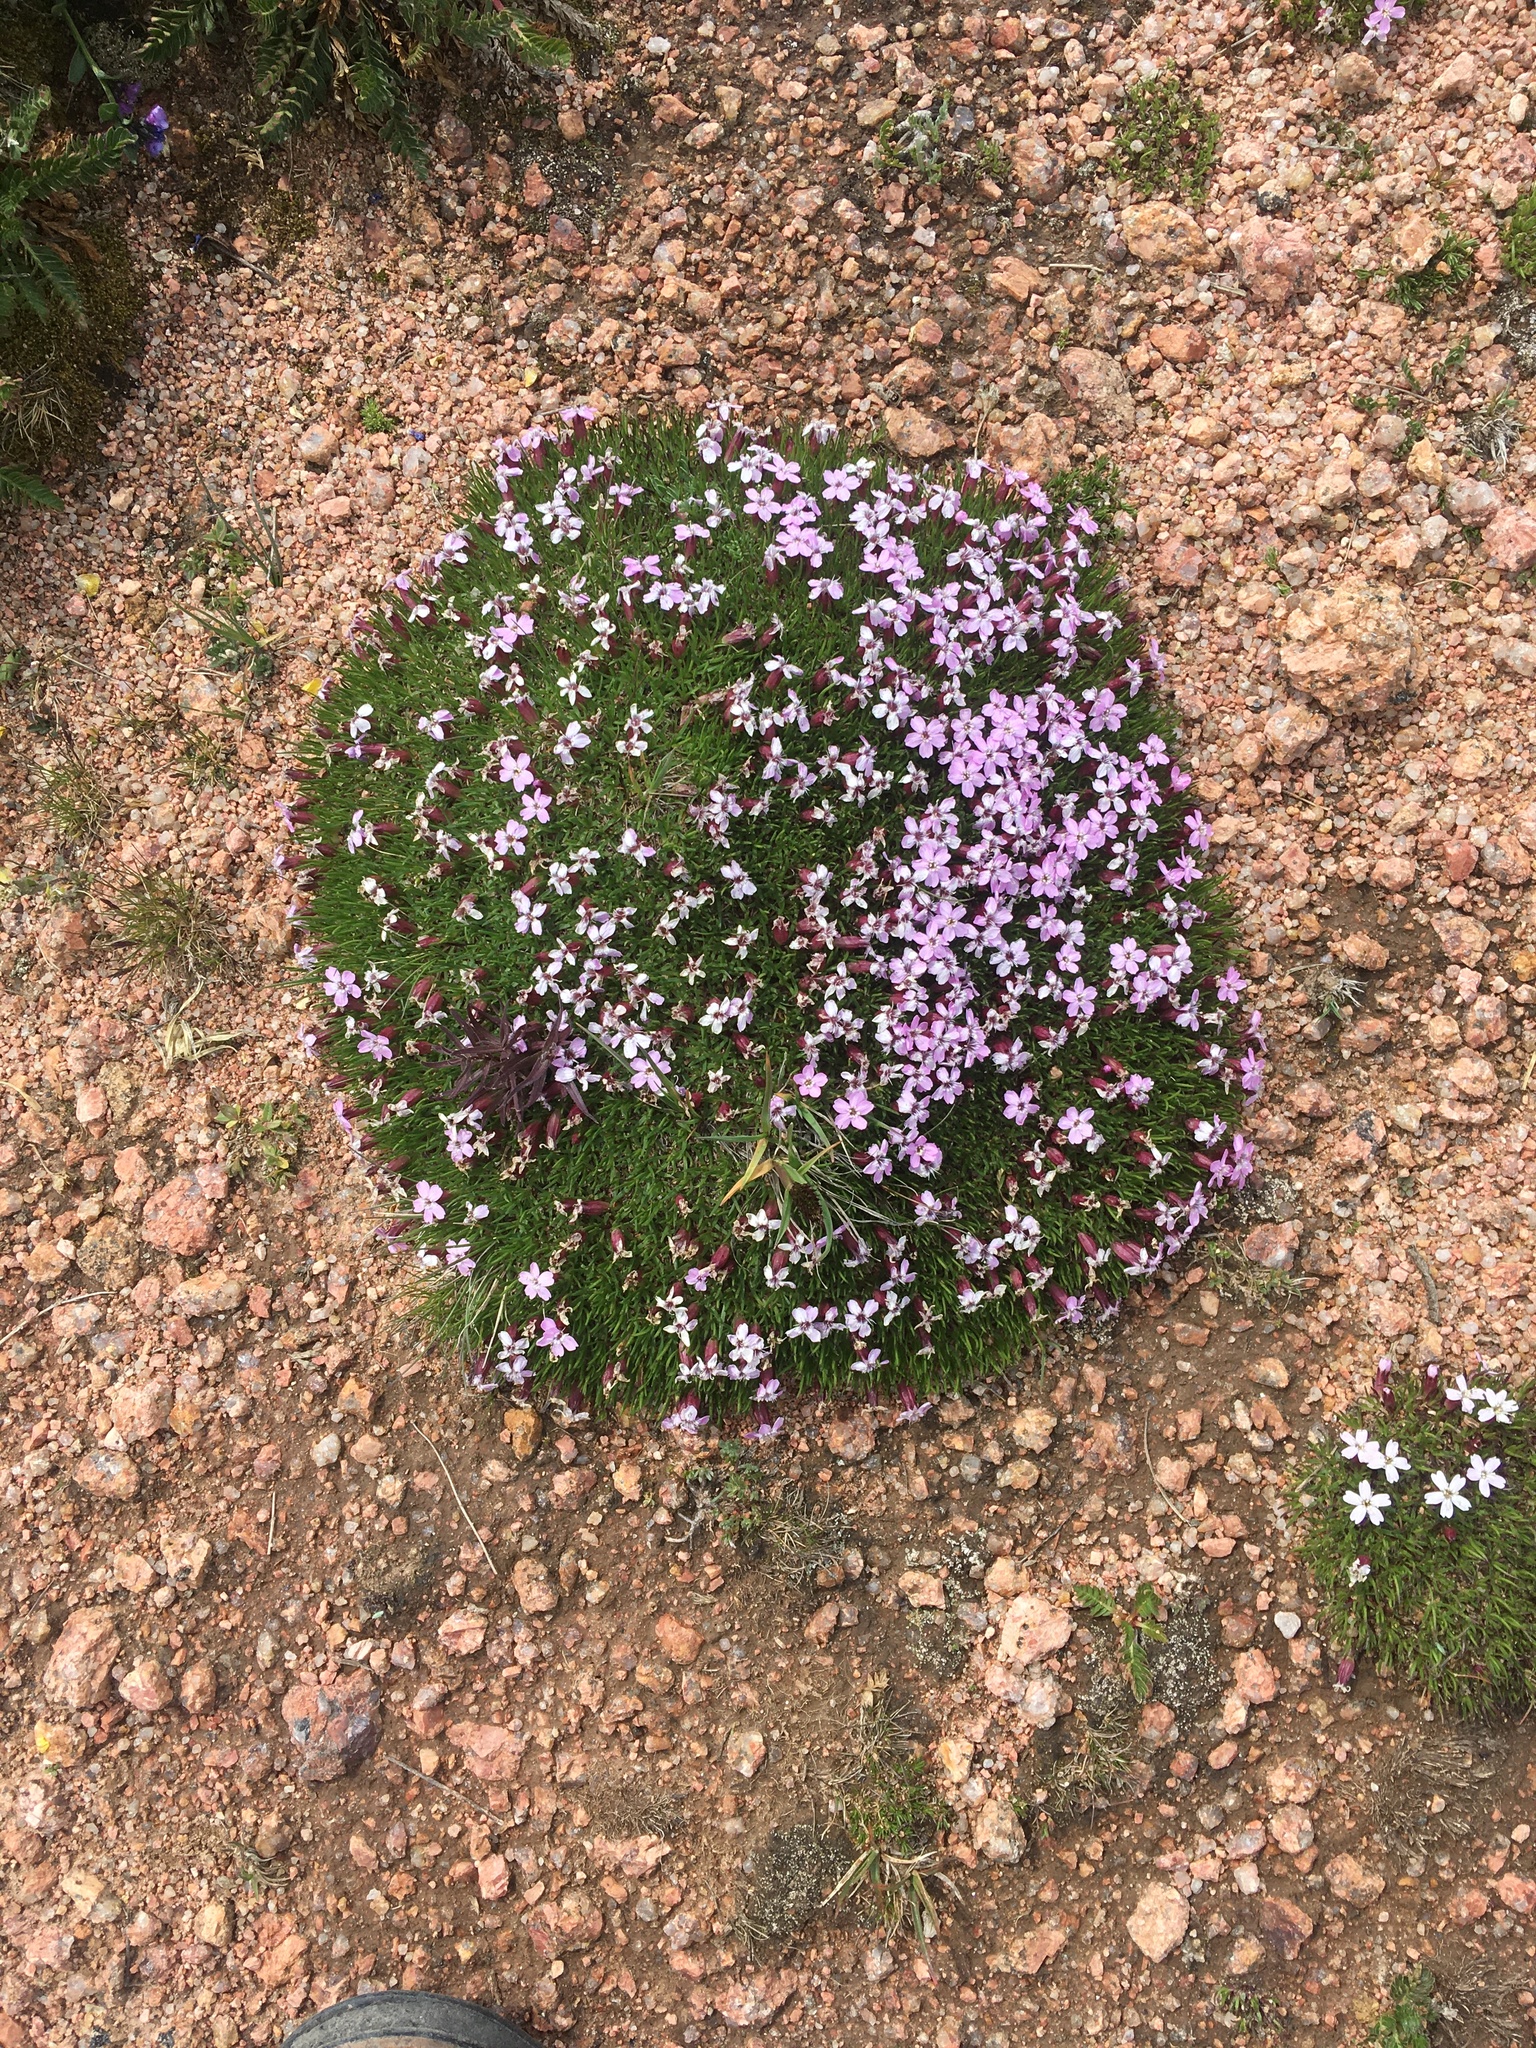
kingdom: Plantae
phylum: Tracheophyta
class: Magnoliopsida
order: Caryophyllales
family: Caryophyllaceae
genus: Silene
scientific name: Silene acaulis
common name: Moss campion
